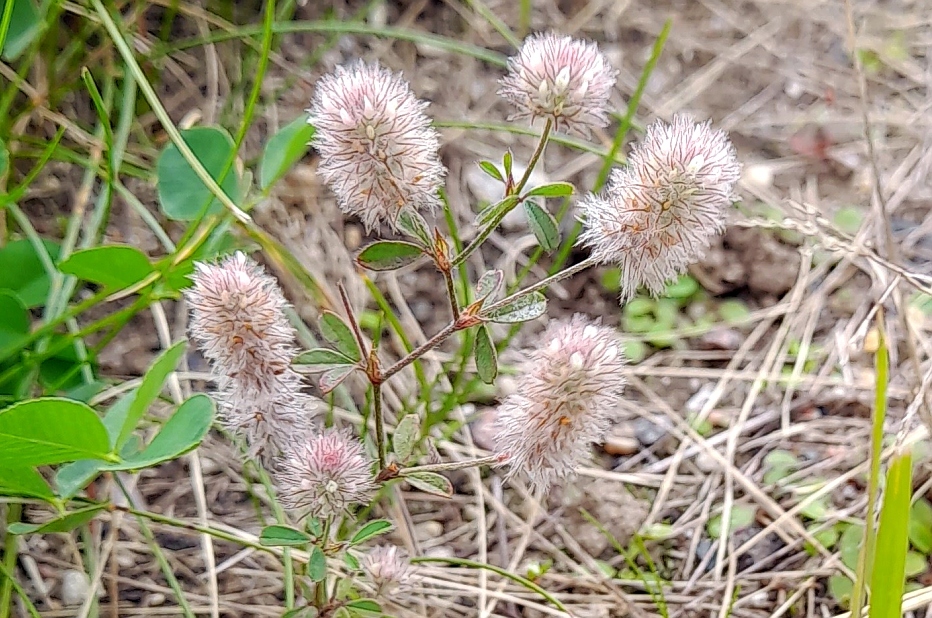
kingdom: Plantae
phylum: Tracheophyta
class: Magnoliopsida
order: Fabales
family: Fabaceae
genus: Trifolium
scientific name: Trifolium arvense
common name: Hare's-foot clover
